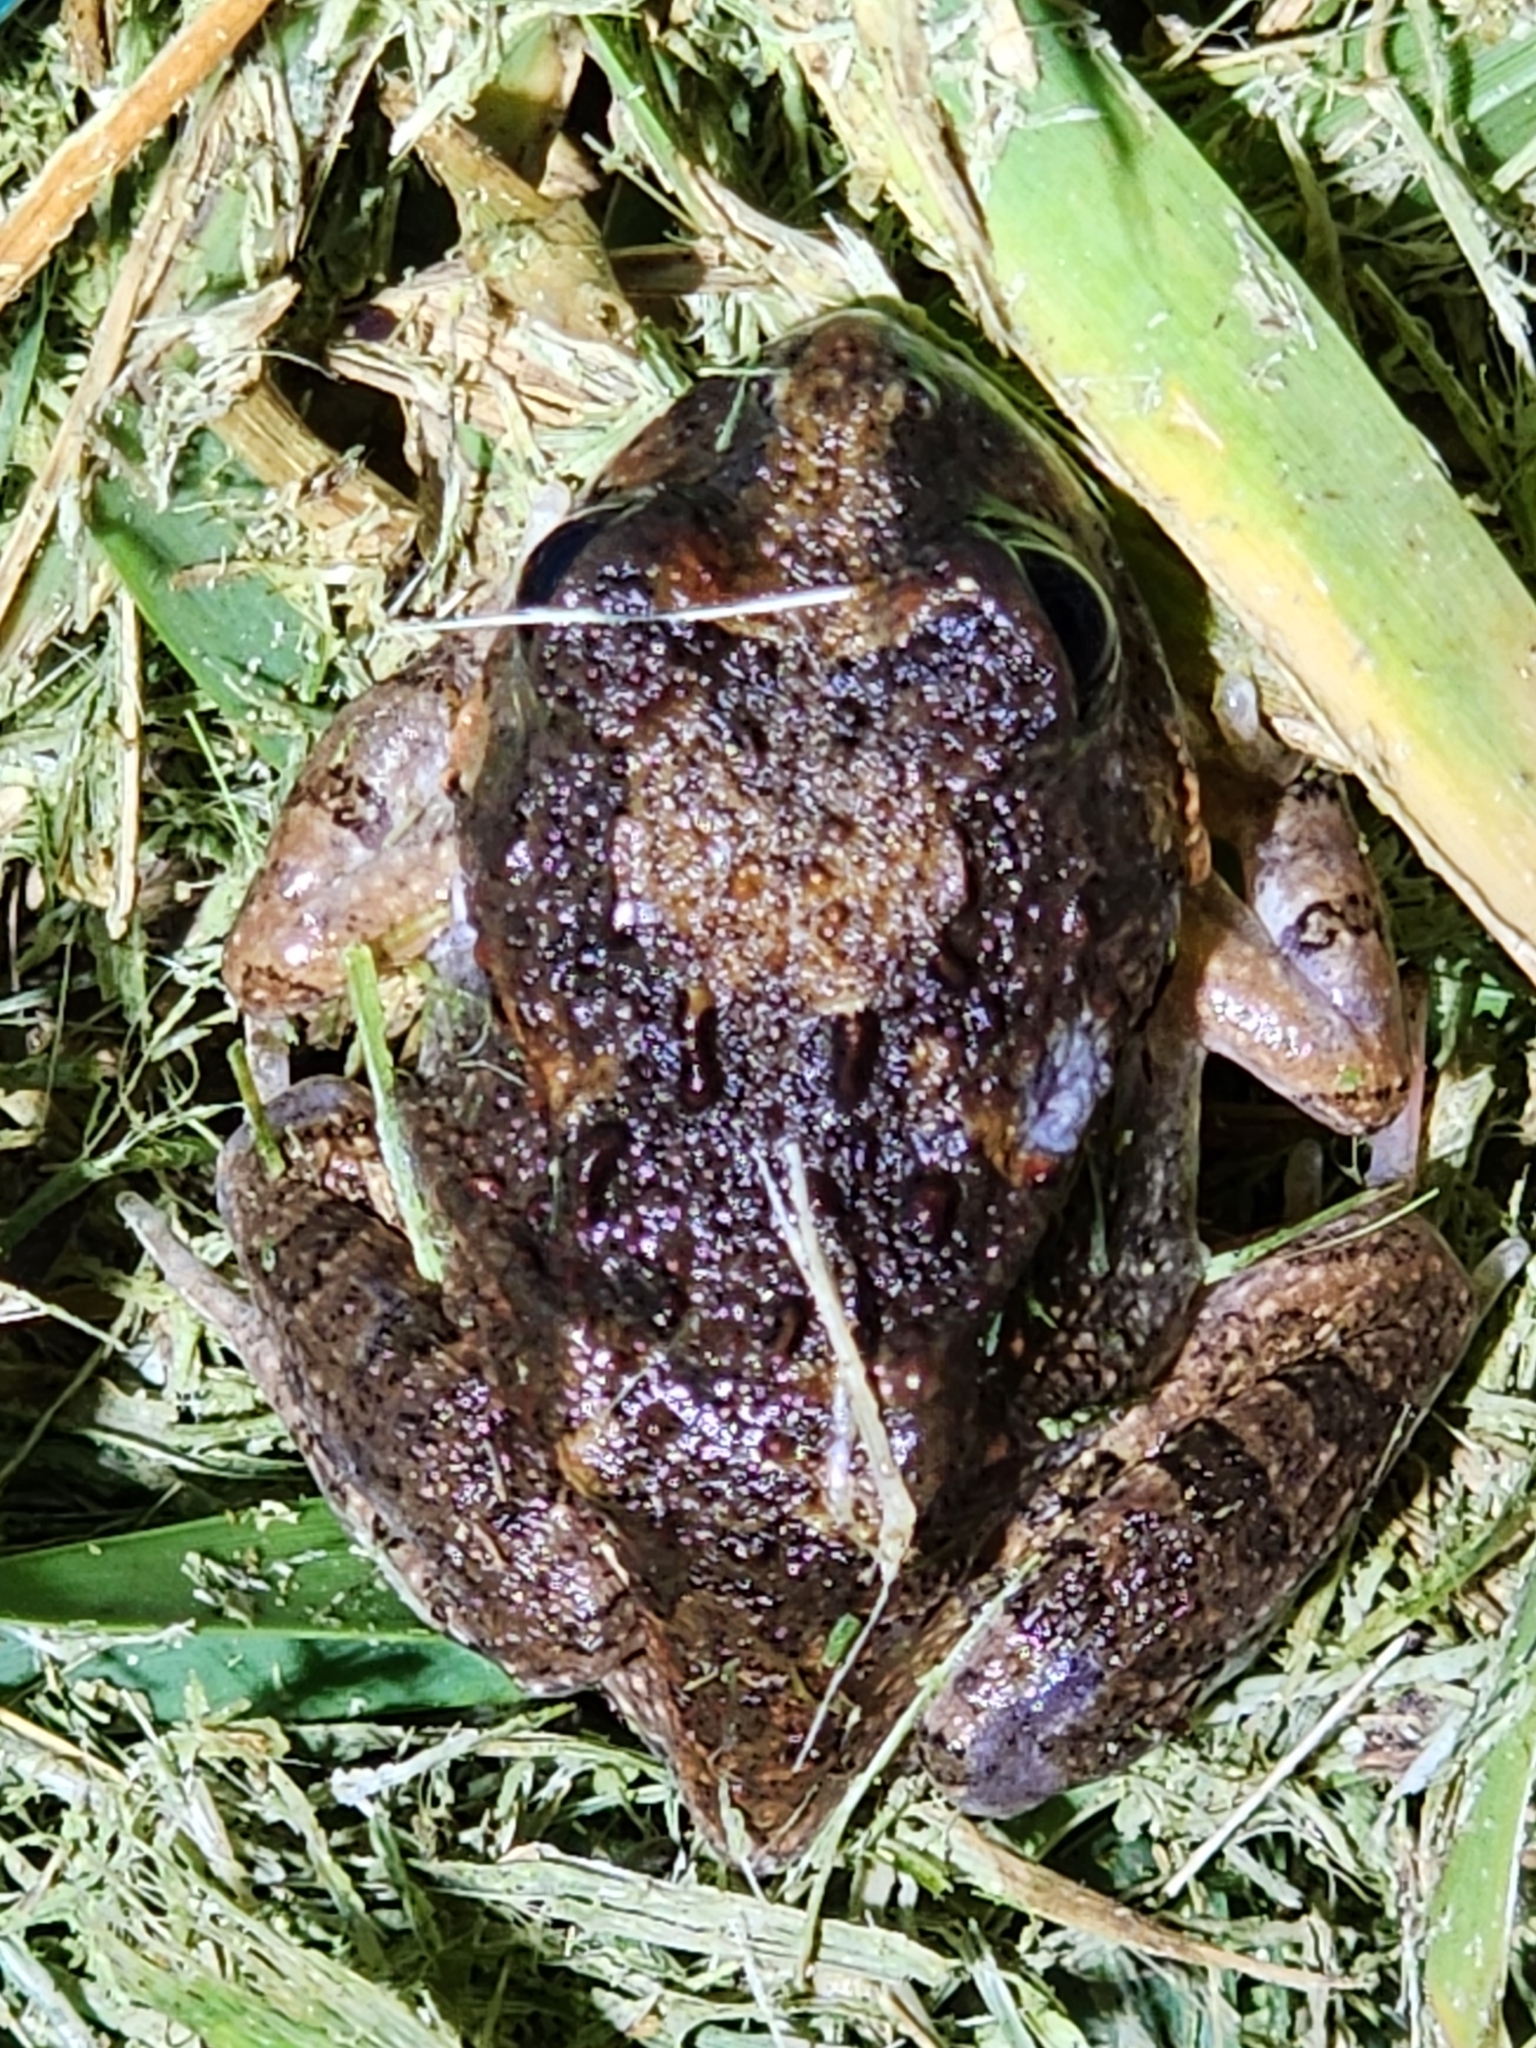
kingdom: Animalia
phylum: Chordata
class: Amphibia
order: Anura
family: Limnodynastidae
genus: Platyplectrum
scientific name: Platyplectrum ornatum
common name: Ornate burrowing frog
